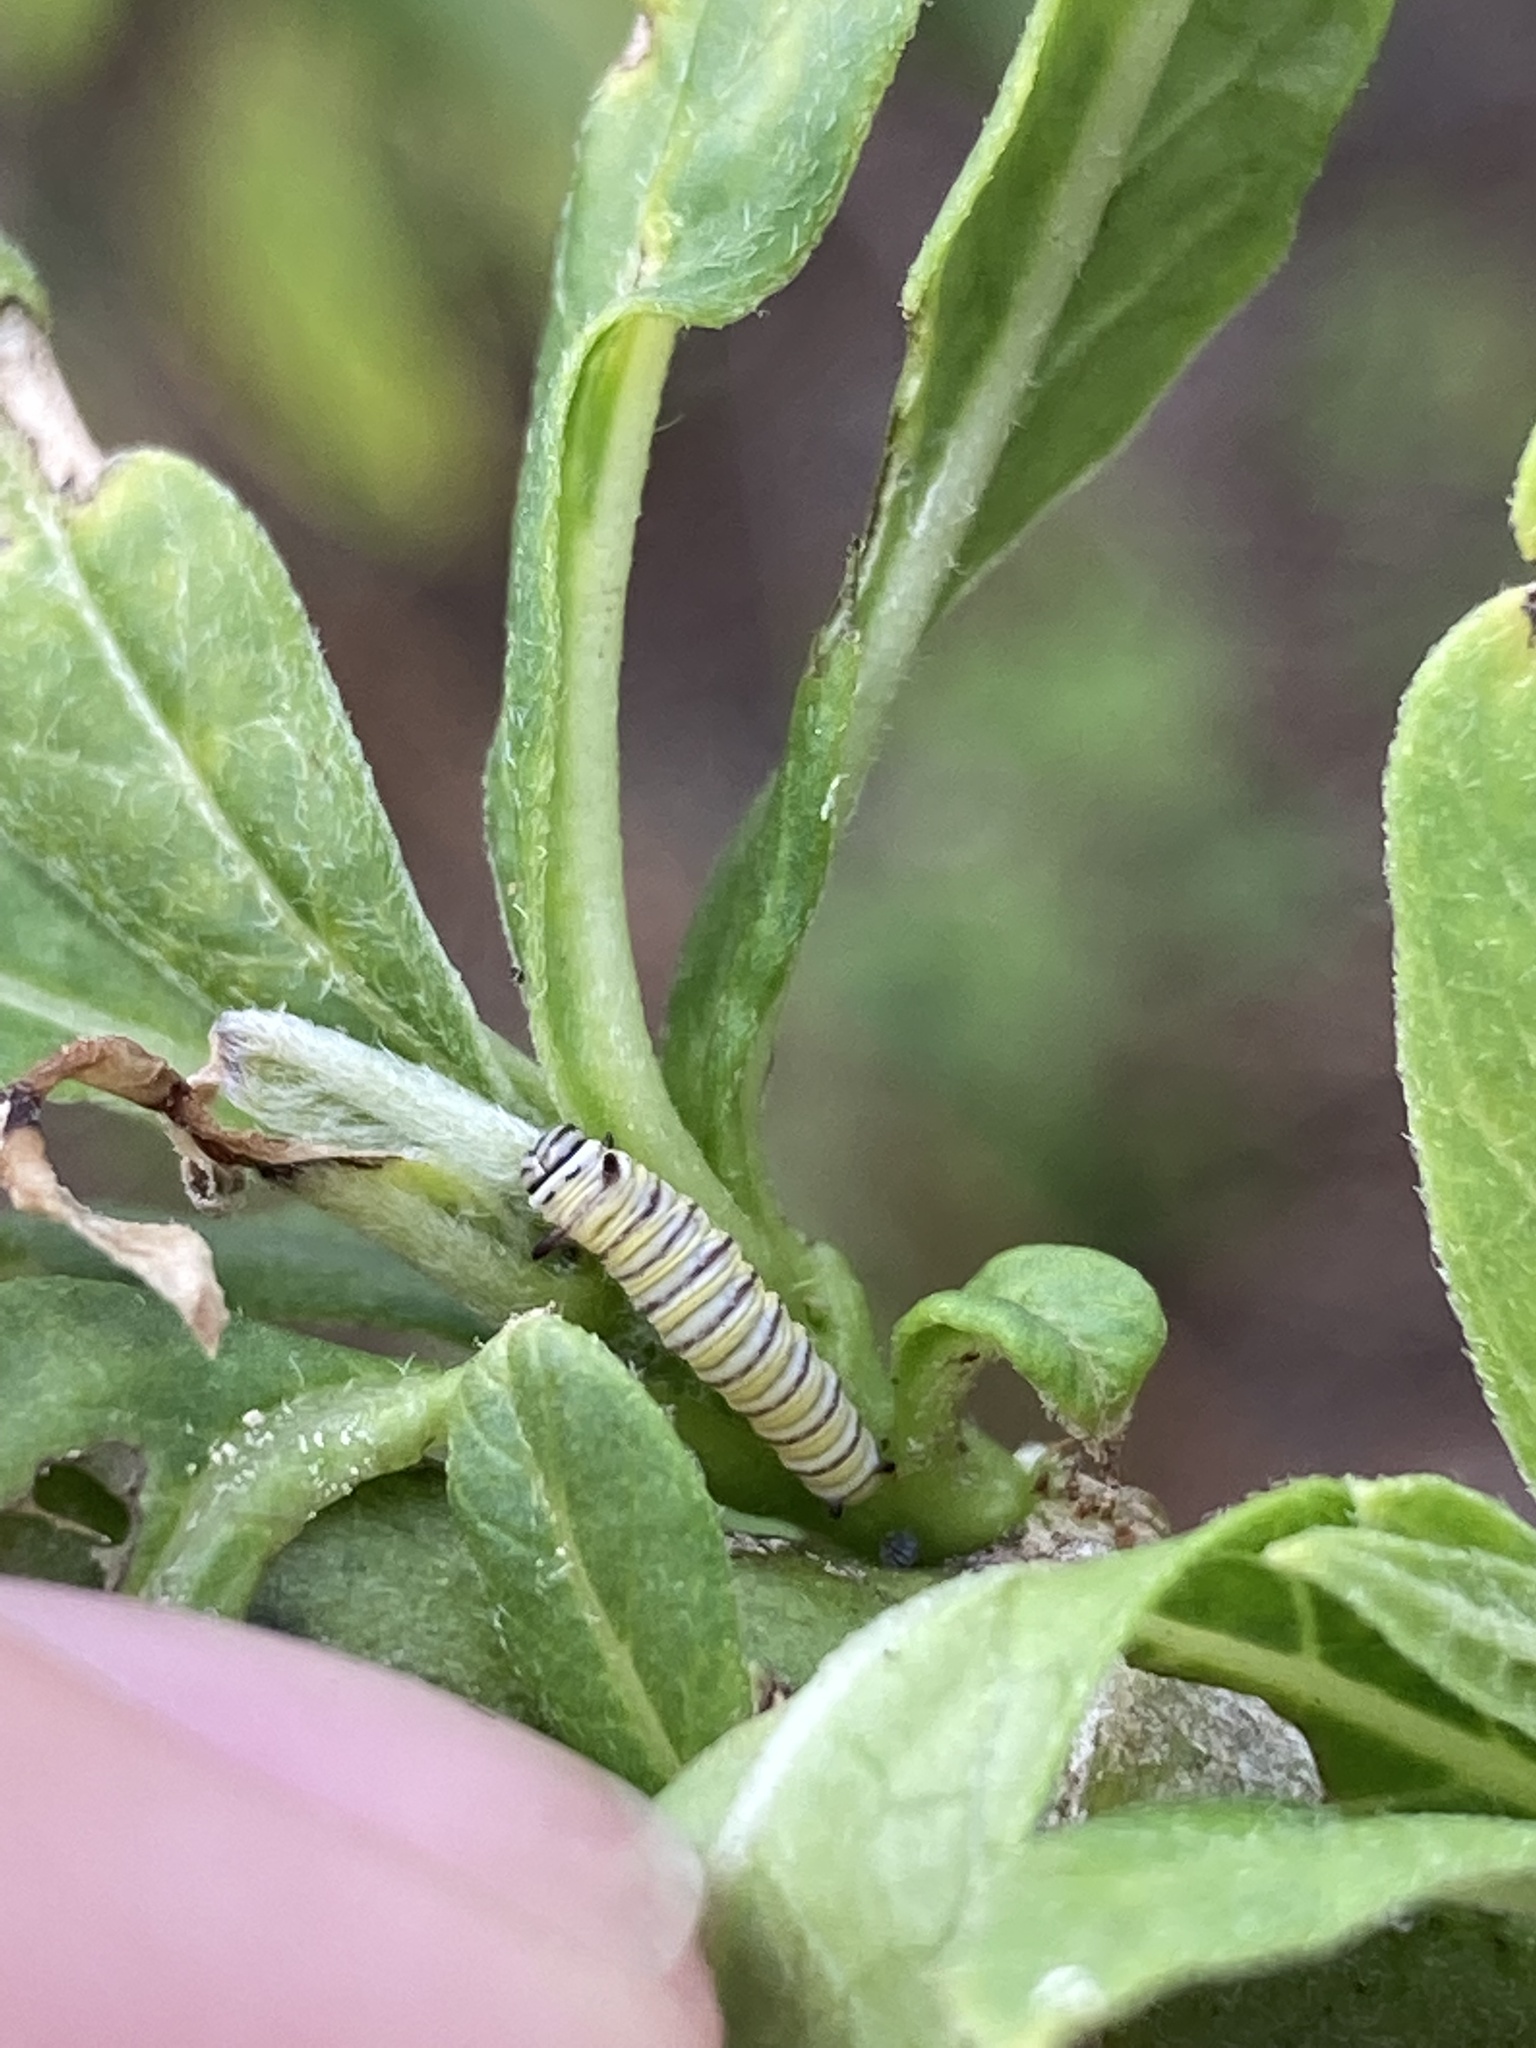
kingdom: Animalia
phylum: Arthropoda
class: Insecta
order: Lepidoptera
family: Nymphalidae
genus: Danaus
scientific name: Danaus plexippus
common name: Monarch
